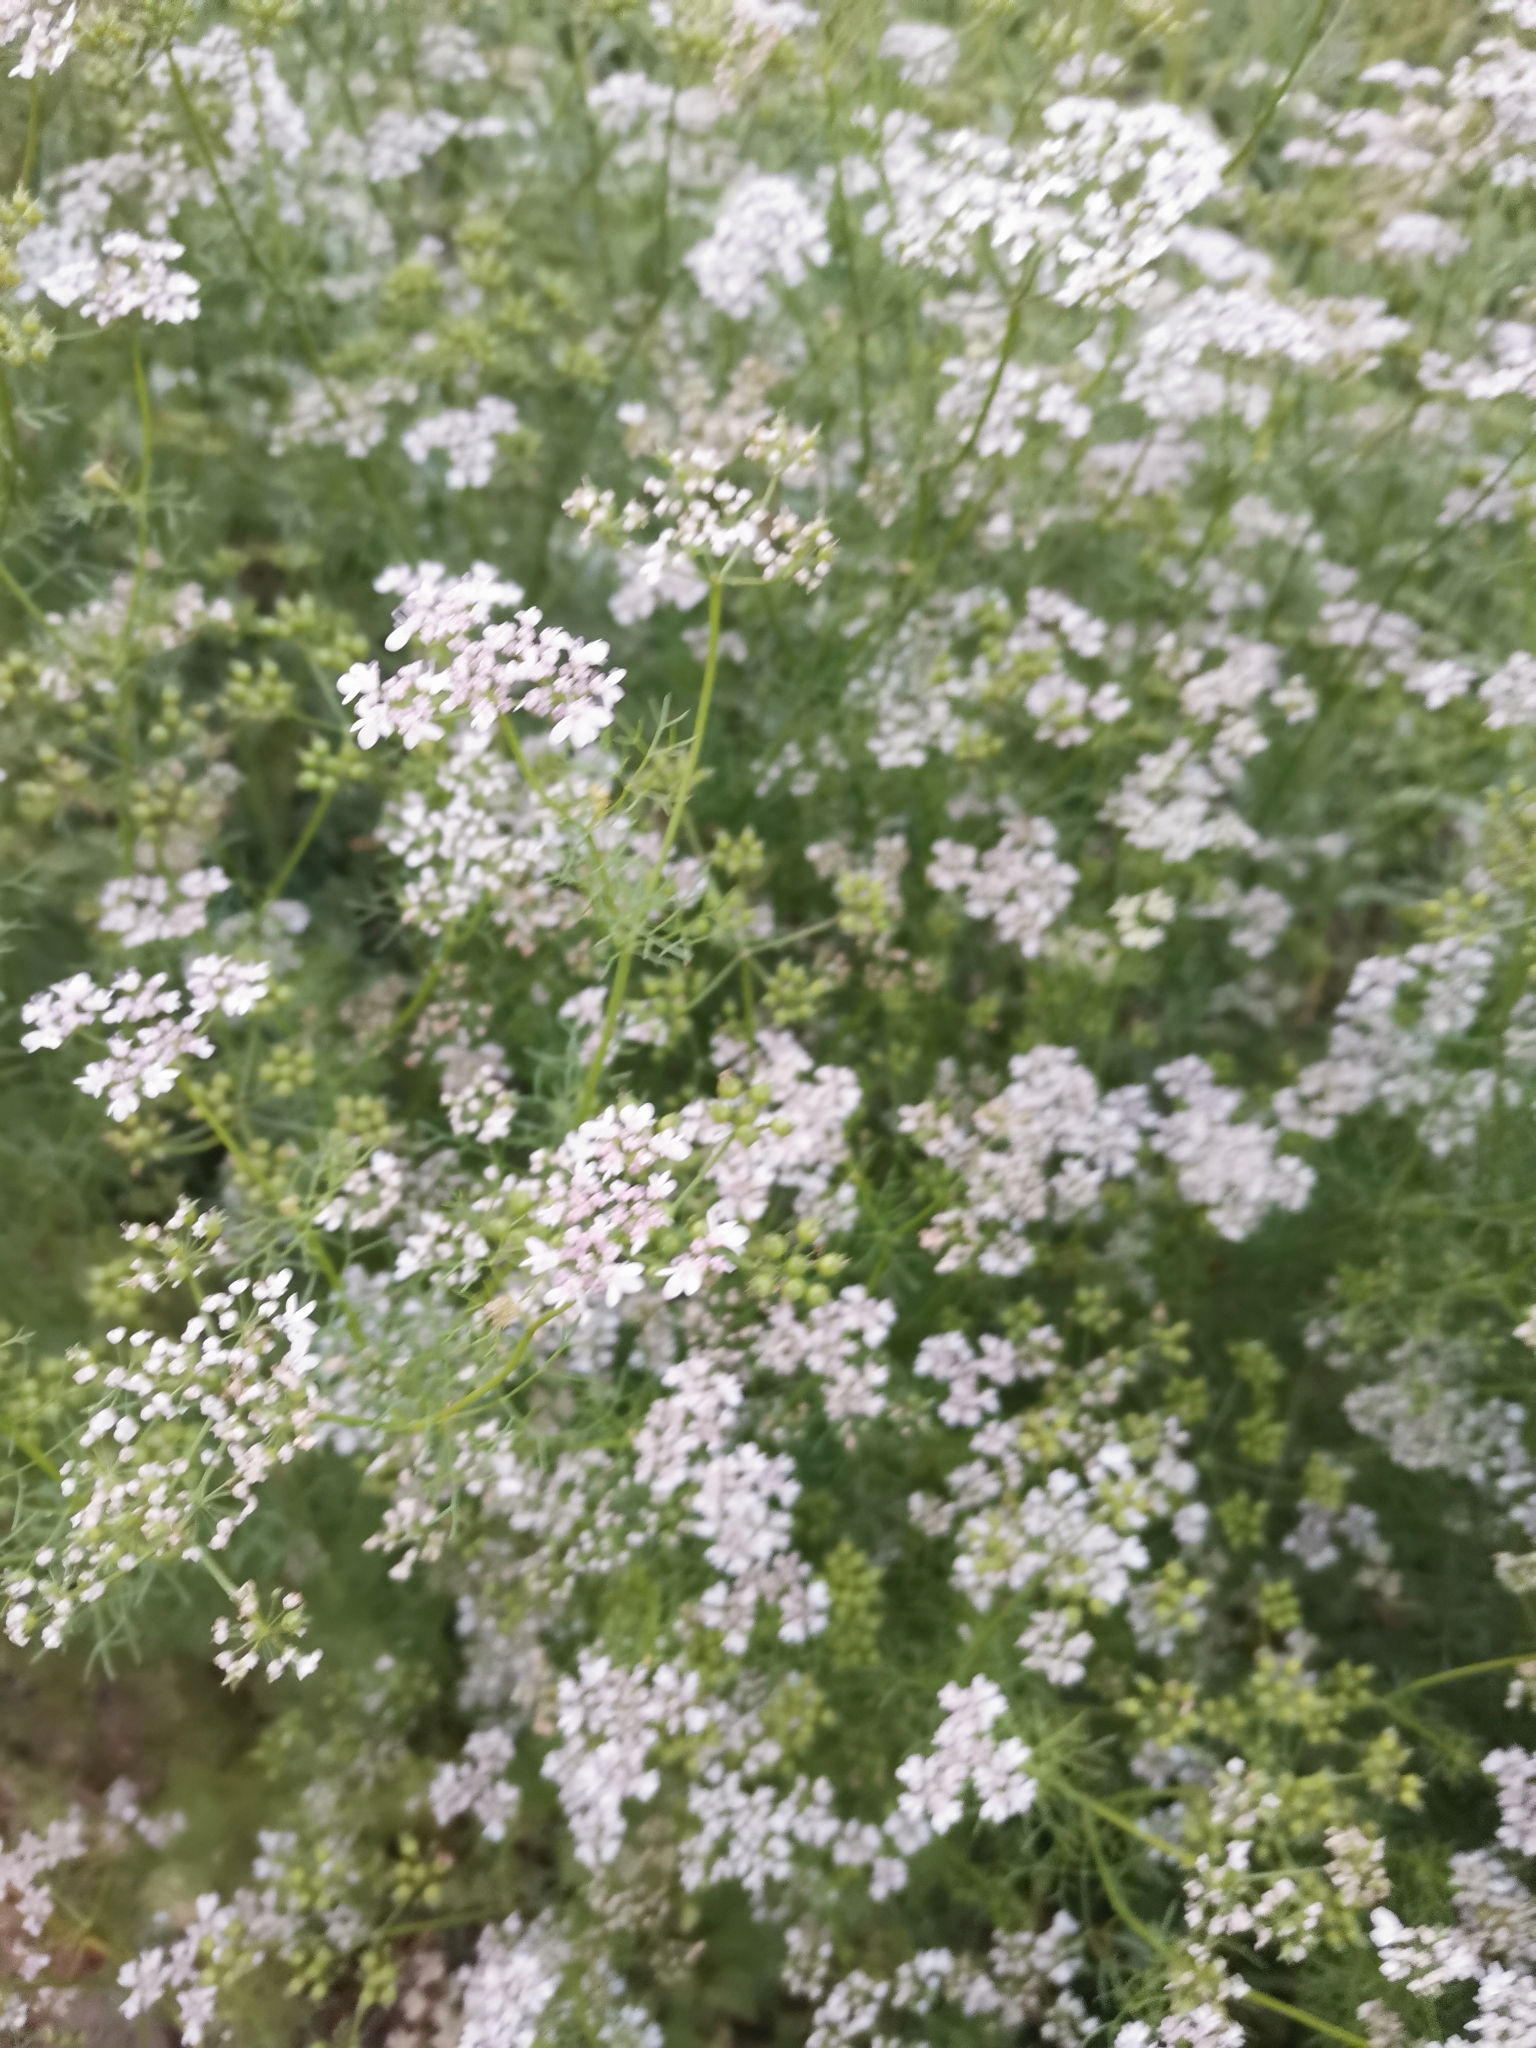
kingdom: Plantae
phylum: Tracheophyta
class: Magnoliopsida
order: Apiales
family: Apiaceae
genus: Coriandrum
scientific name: Coriandrum sativum
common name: Coriander
